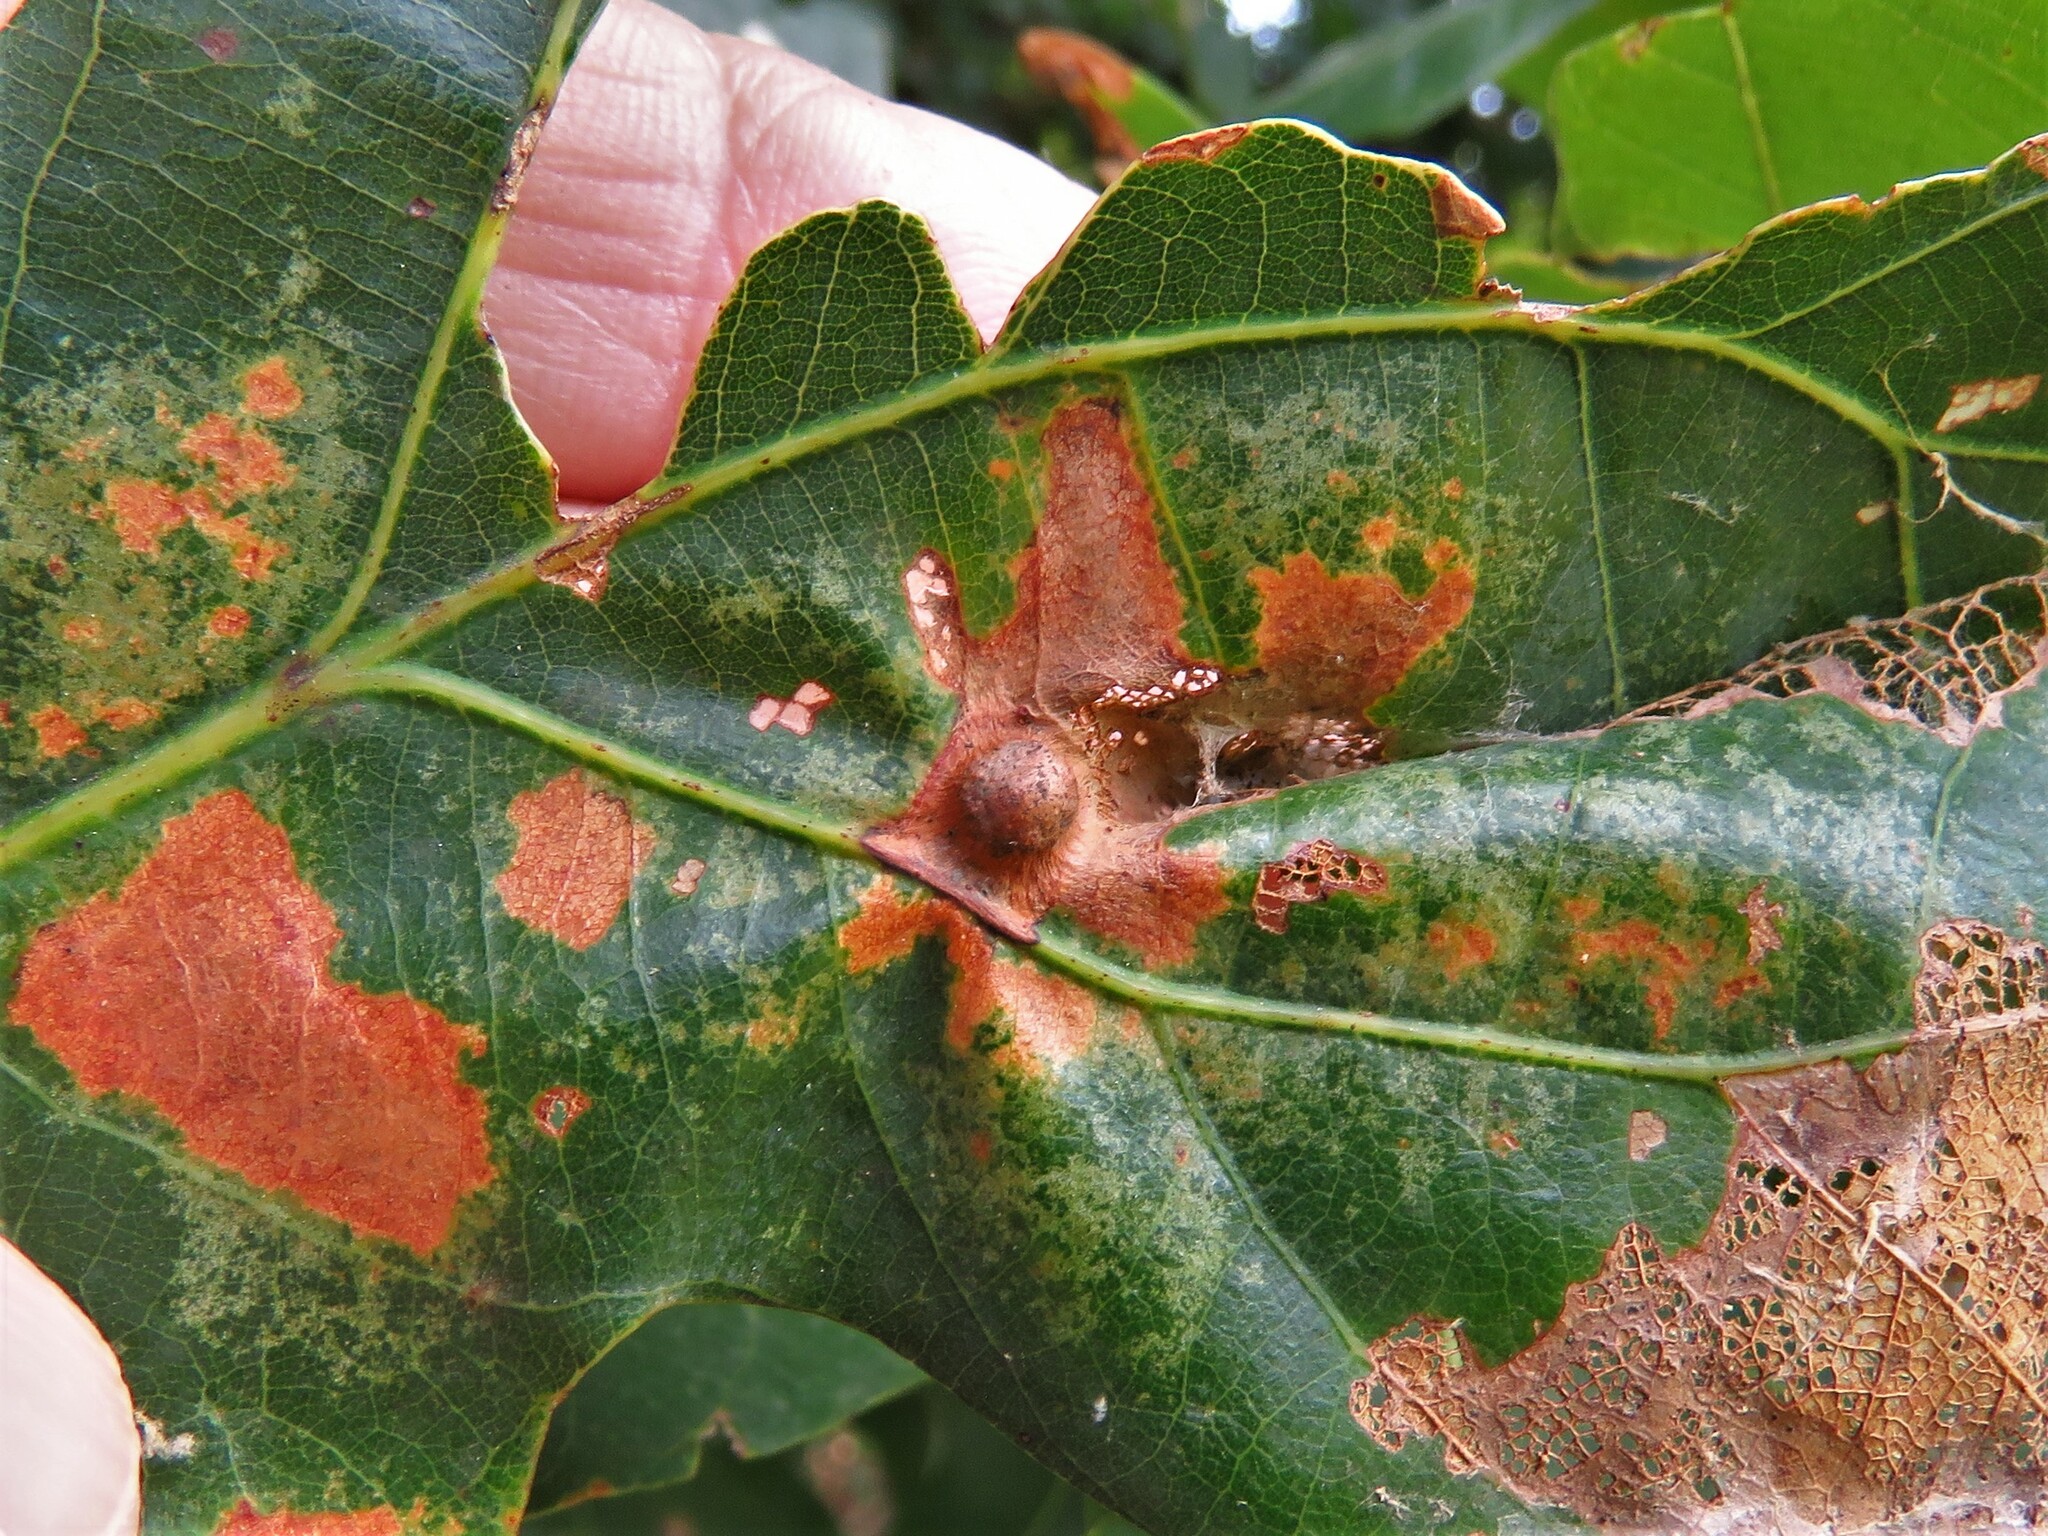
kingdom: Animalia
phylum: Arthropoda
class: Insecta
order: Hymenoptera
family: Cynipidae
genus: Callirhytis
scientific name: Callirhytis
